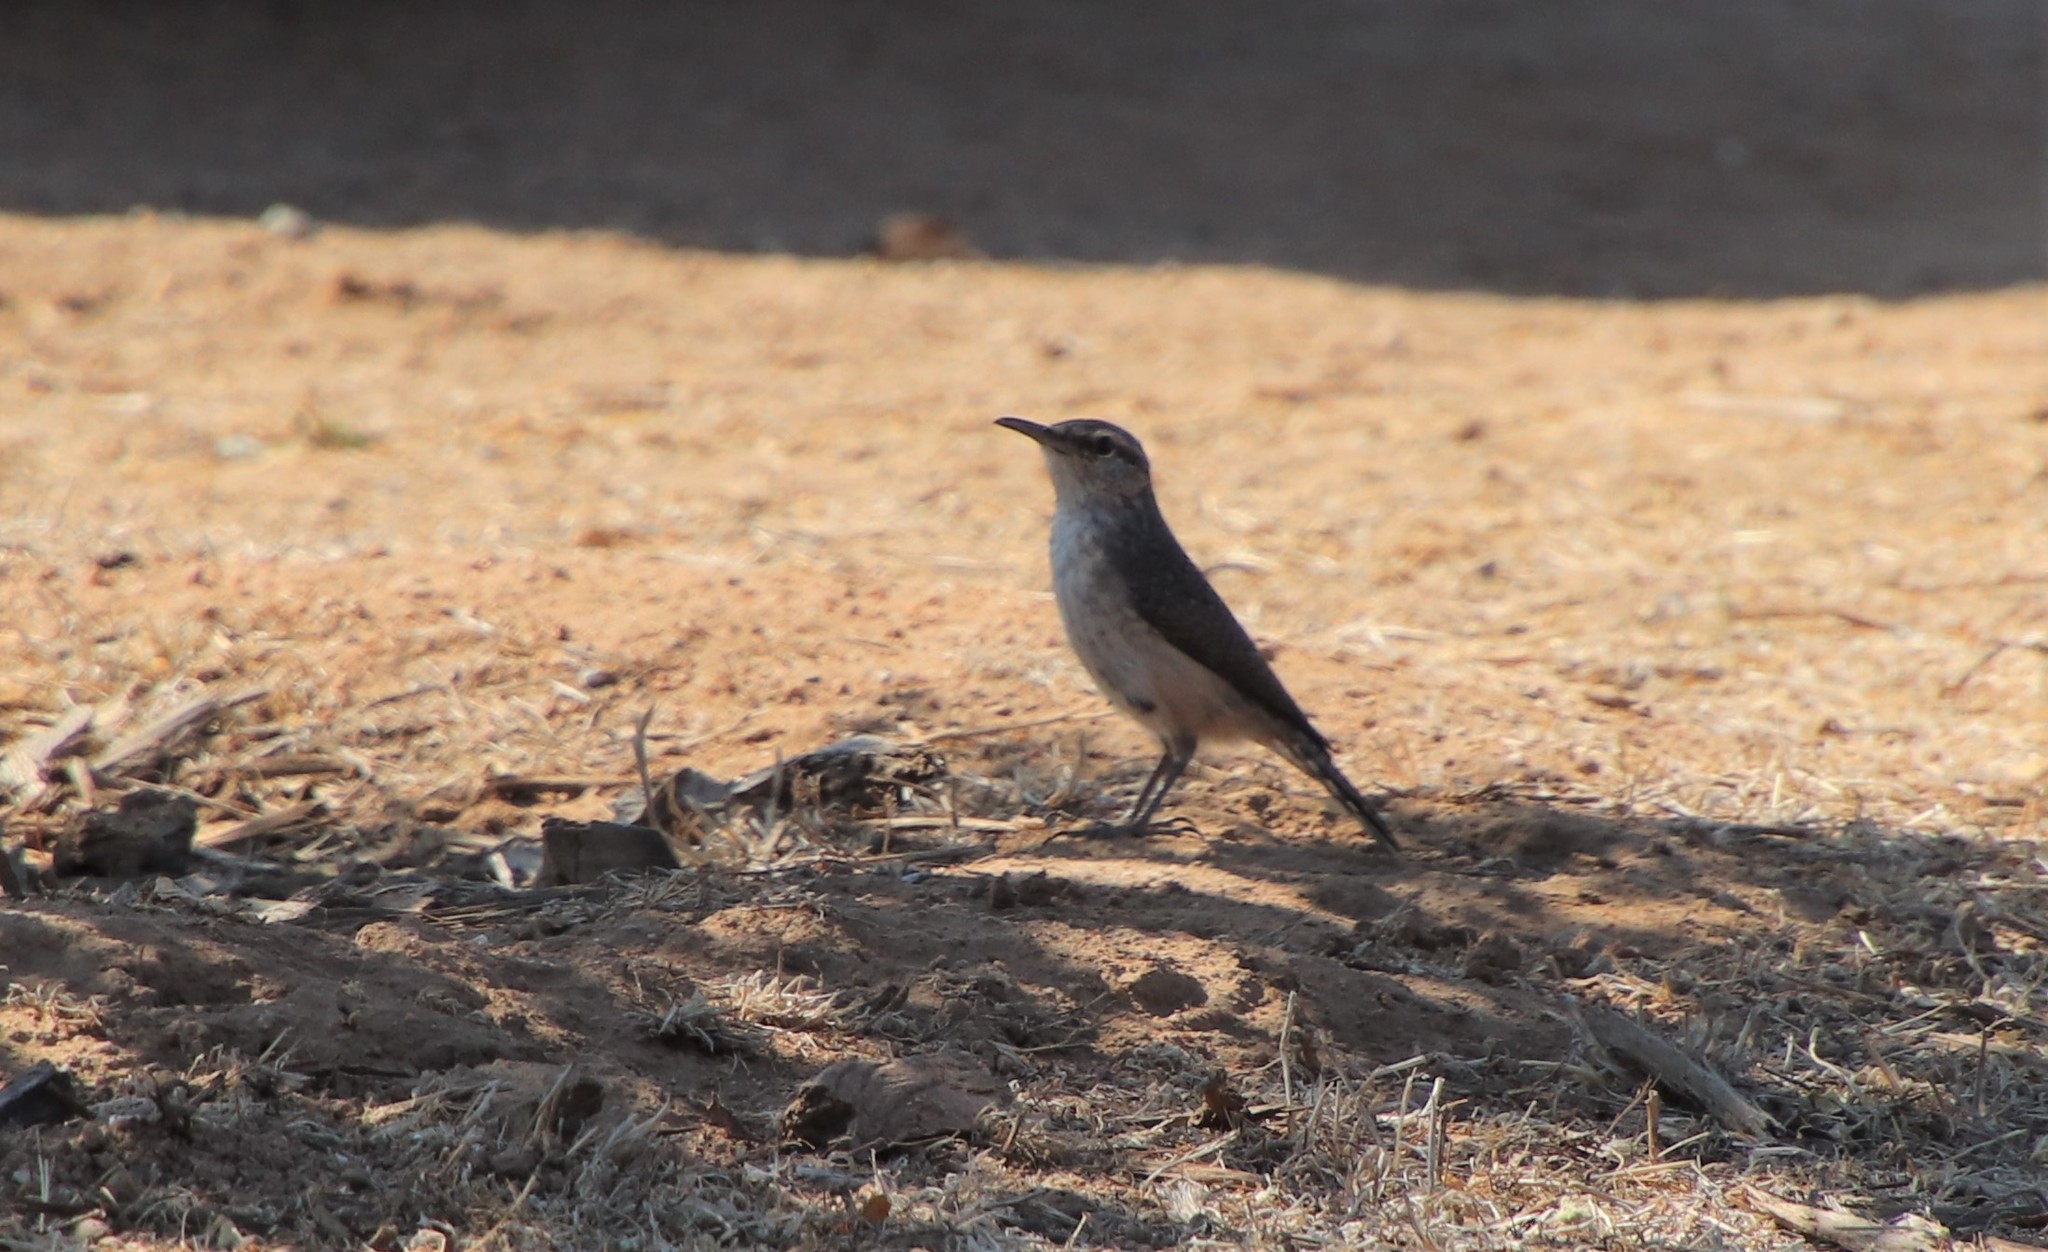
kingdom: Animalia
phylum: Chordata
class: Aves
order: Passeriformes
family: Troglodytidae
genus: Salpinctes
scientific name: Salpinctes obsoletus
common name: Rock wren
